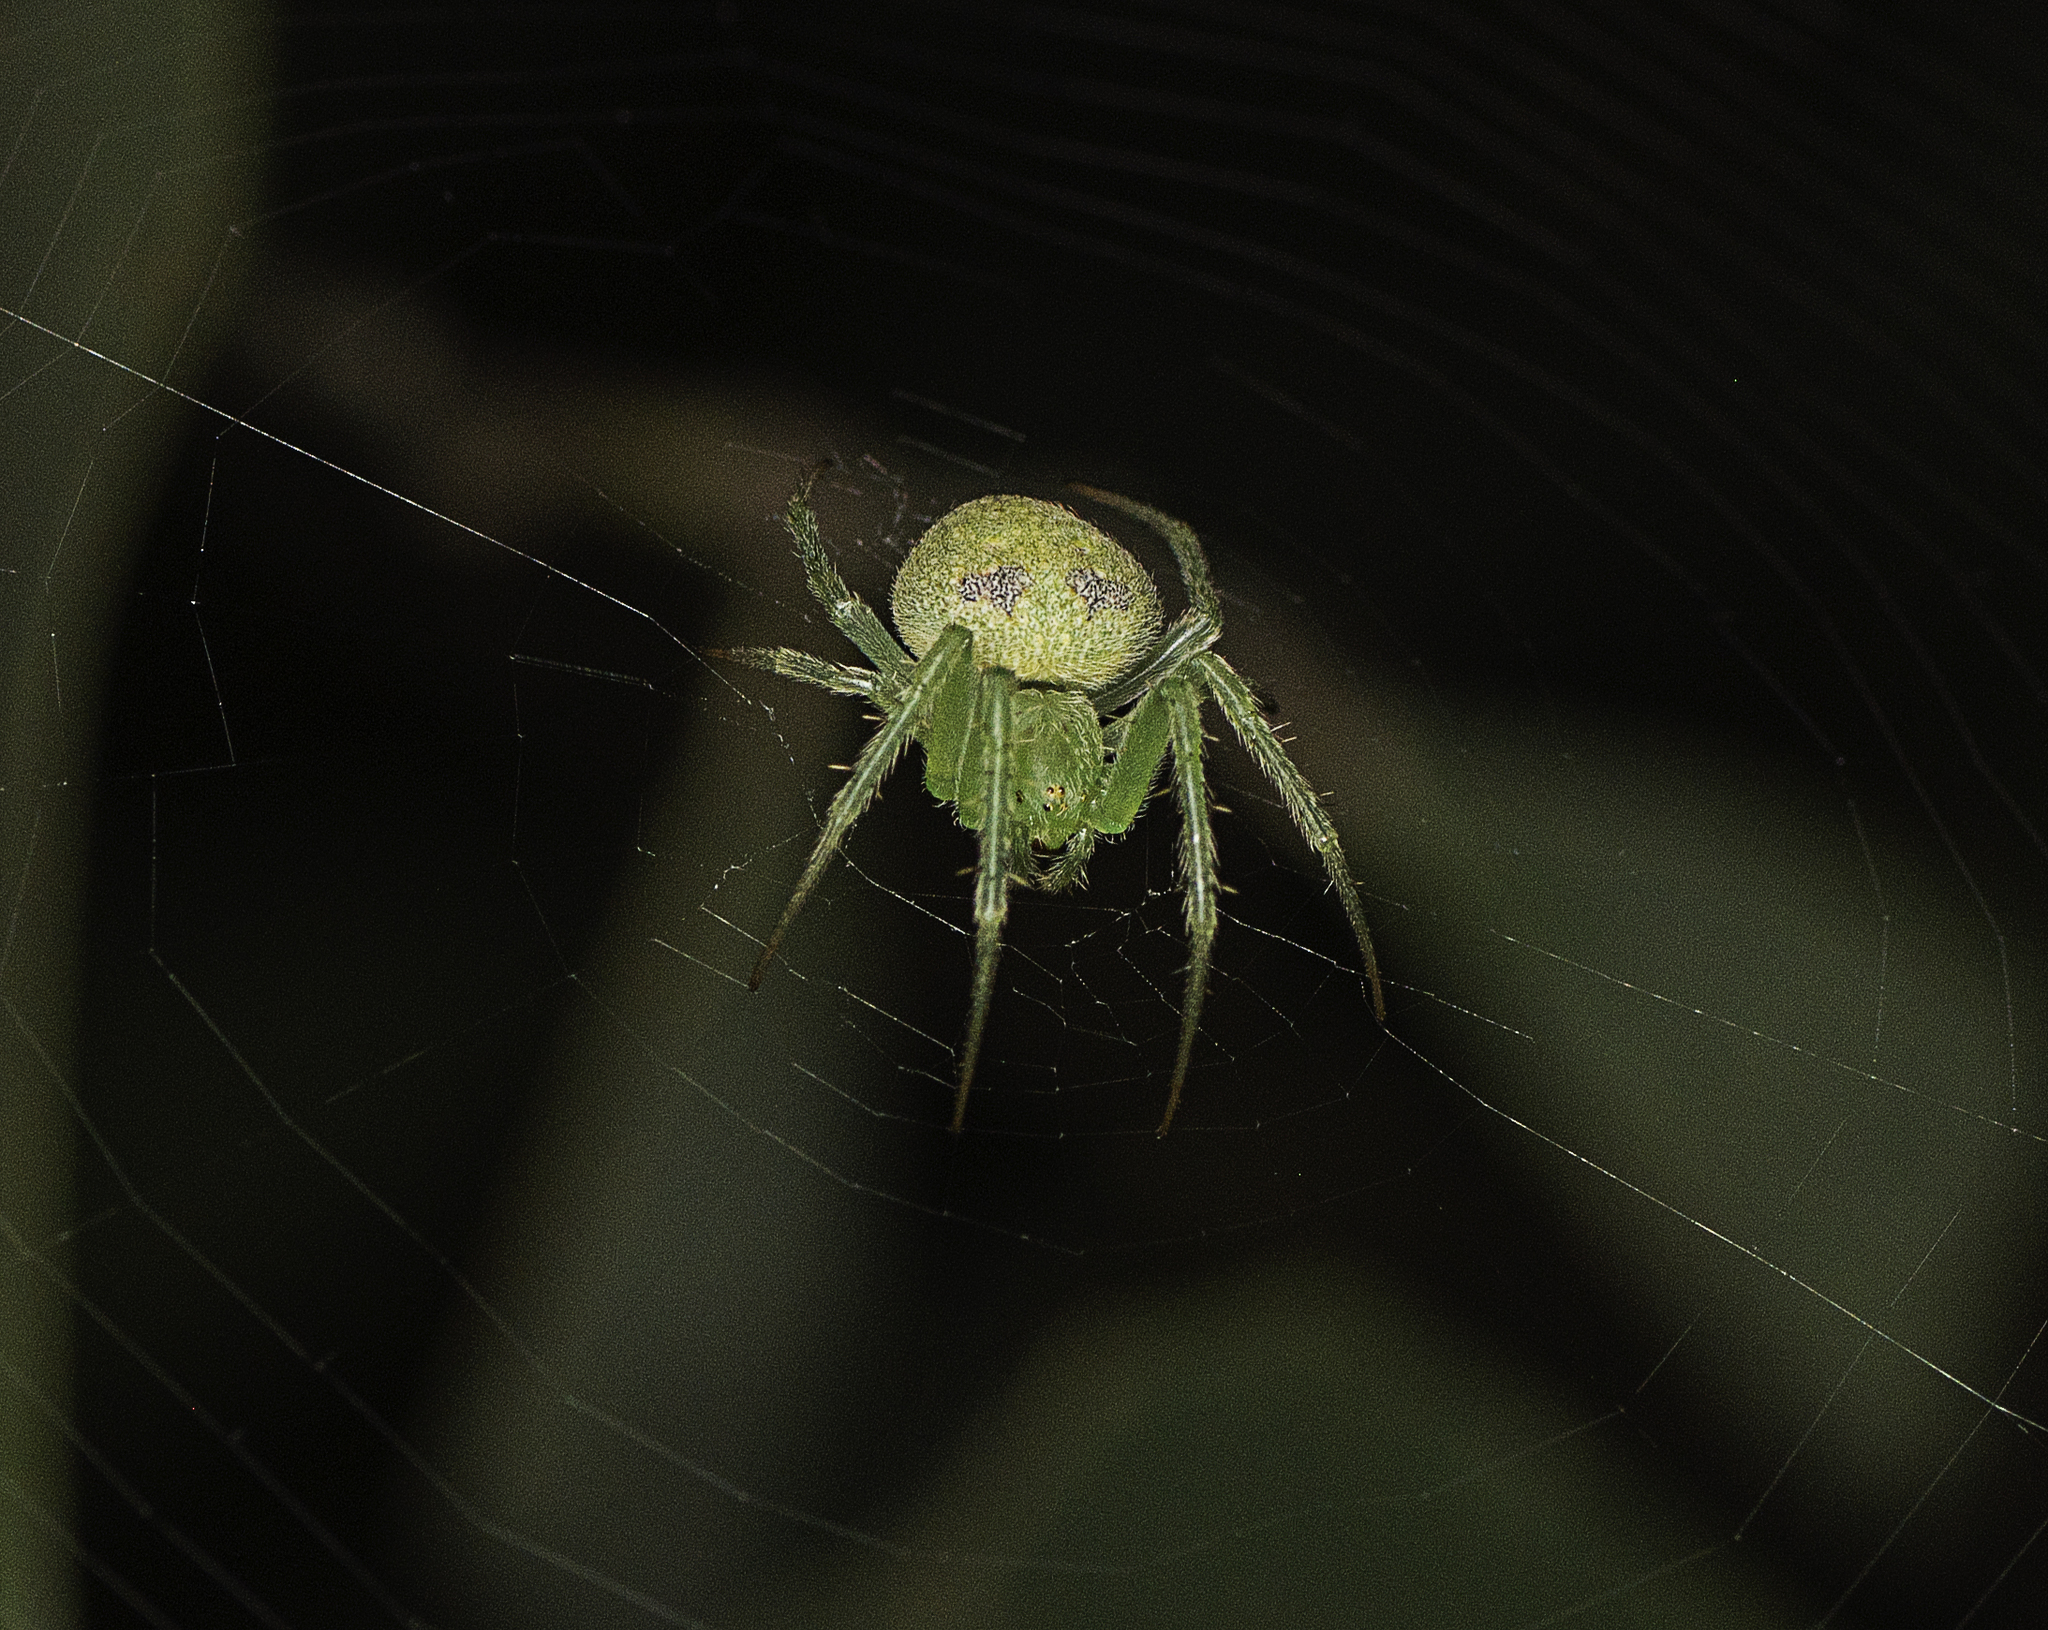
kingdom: Animalia
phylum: Arthropoda
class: Arachnida
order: Araneae
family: Araneidae
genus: Araneus
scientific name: Araneus circulissparsus
